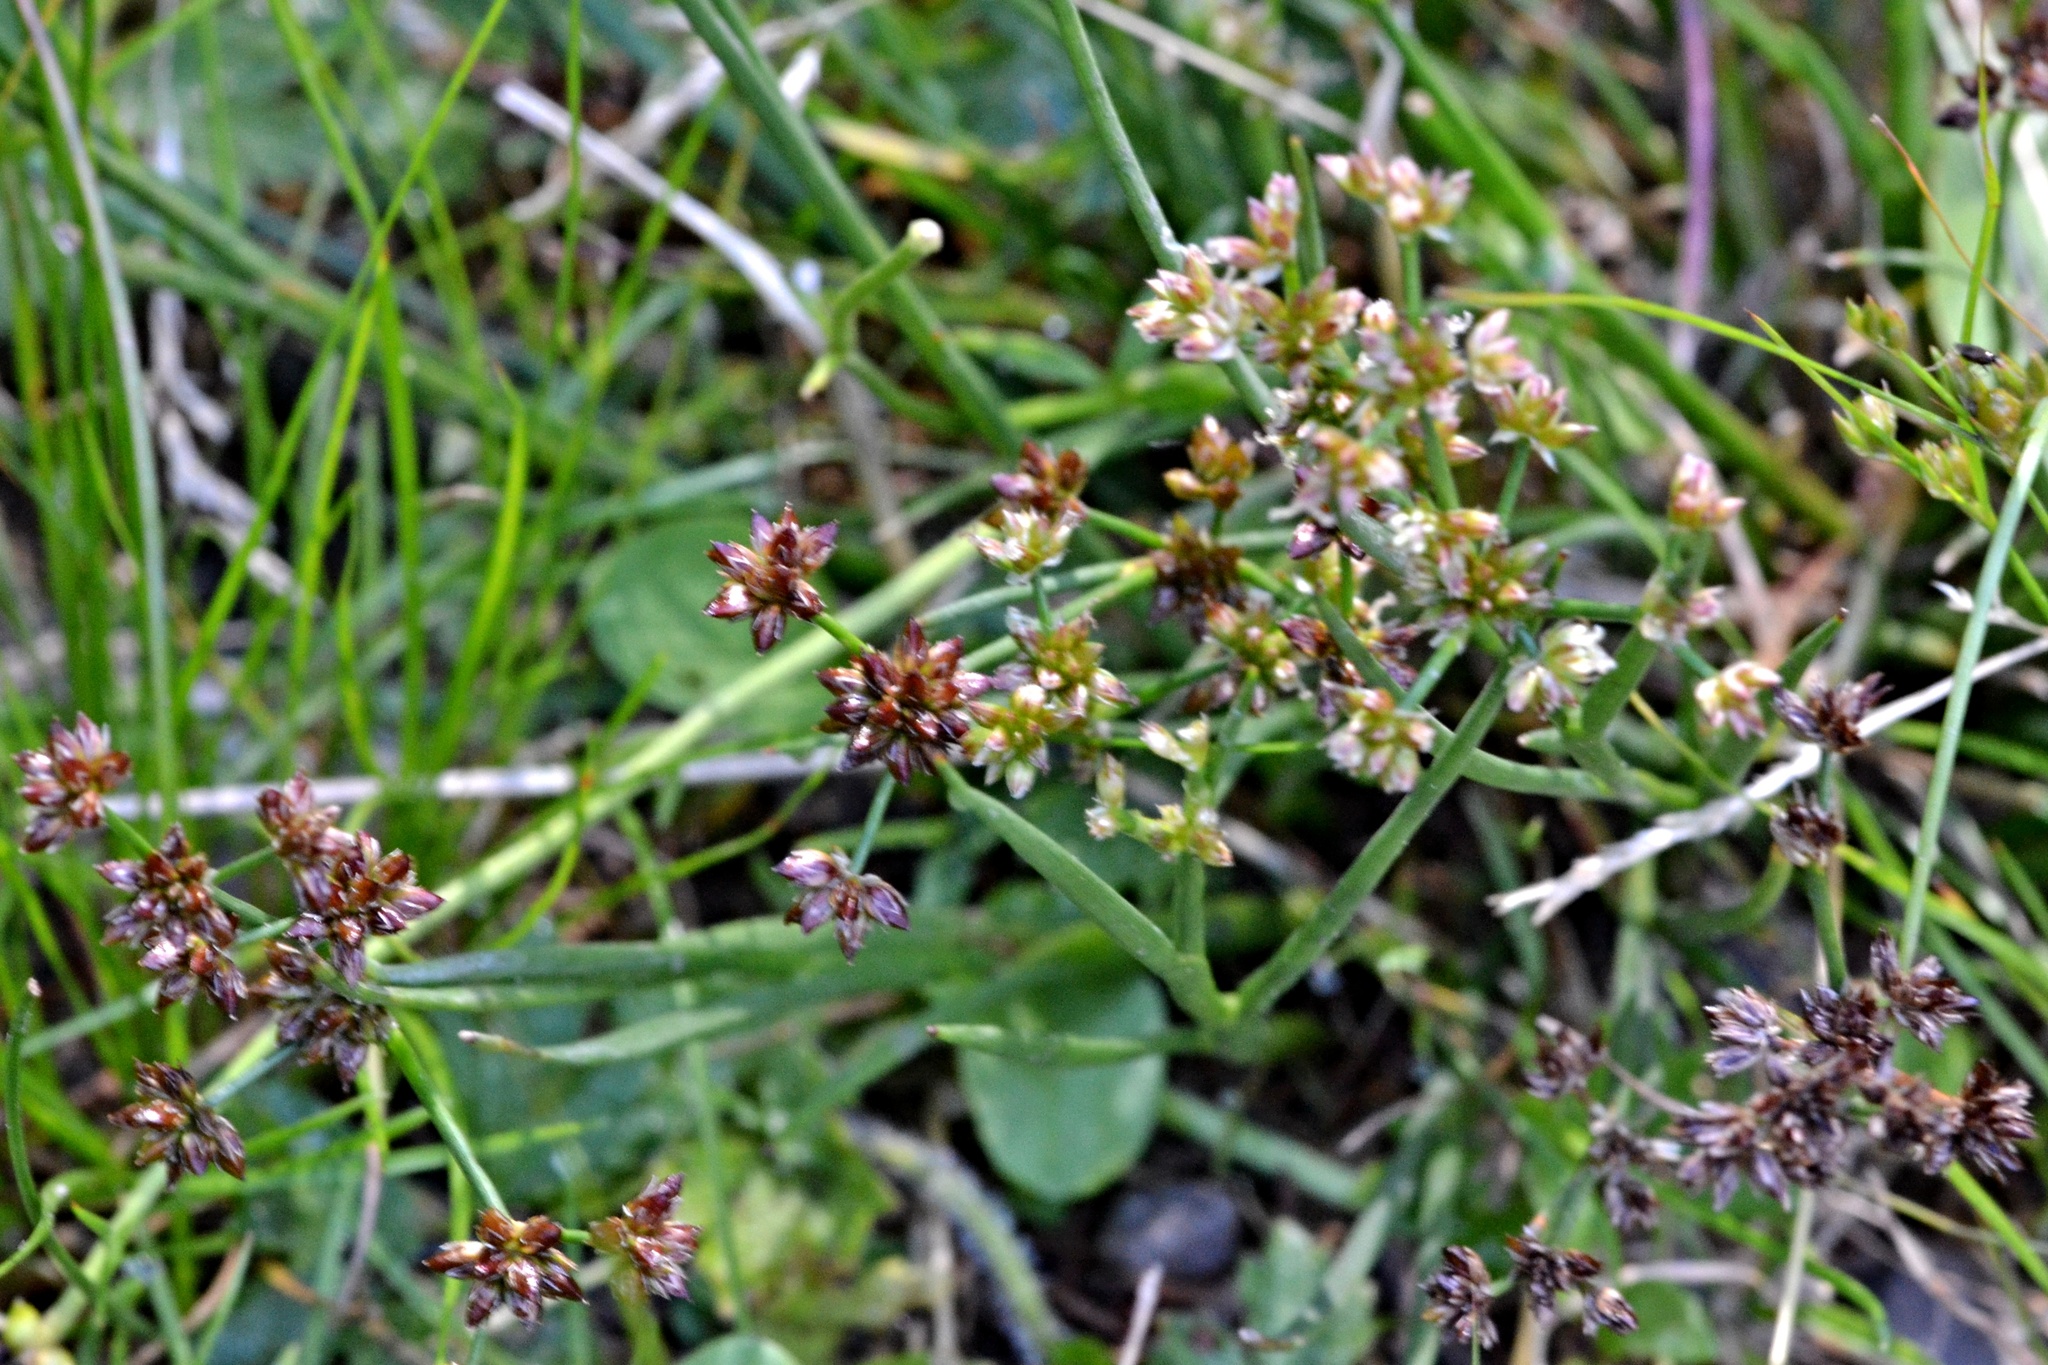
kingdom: Plantae
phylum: Tracheophyta
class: Liliopsida
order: Poales
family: Juncaceae
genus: Juncus
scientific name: Juncus articulatus
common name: Jointed rush
